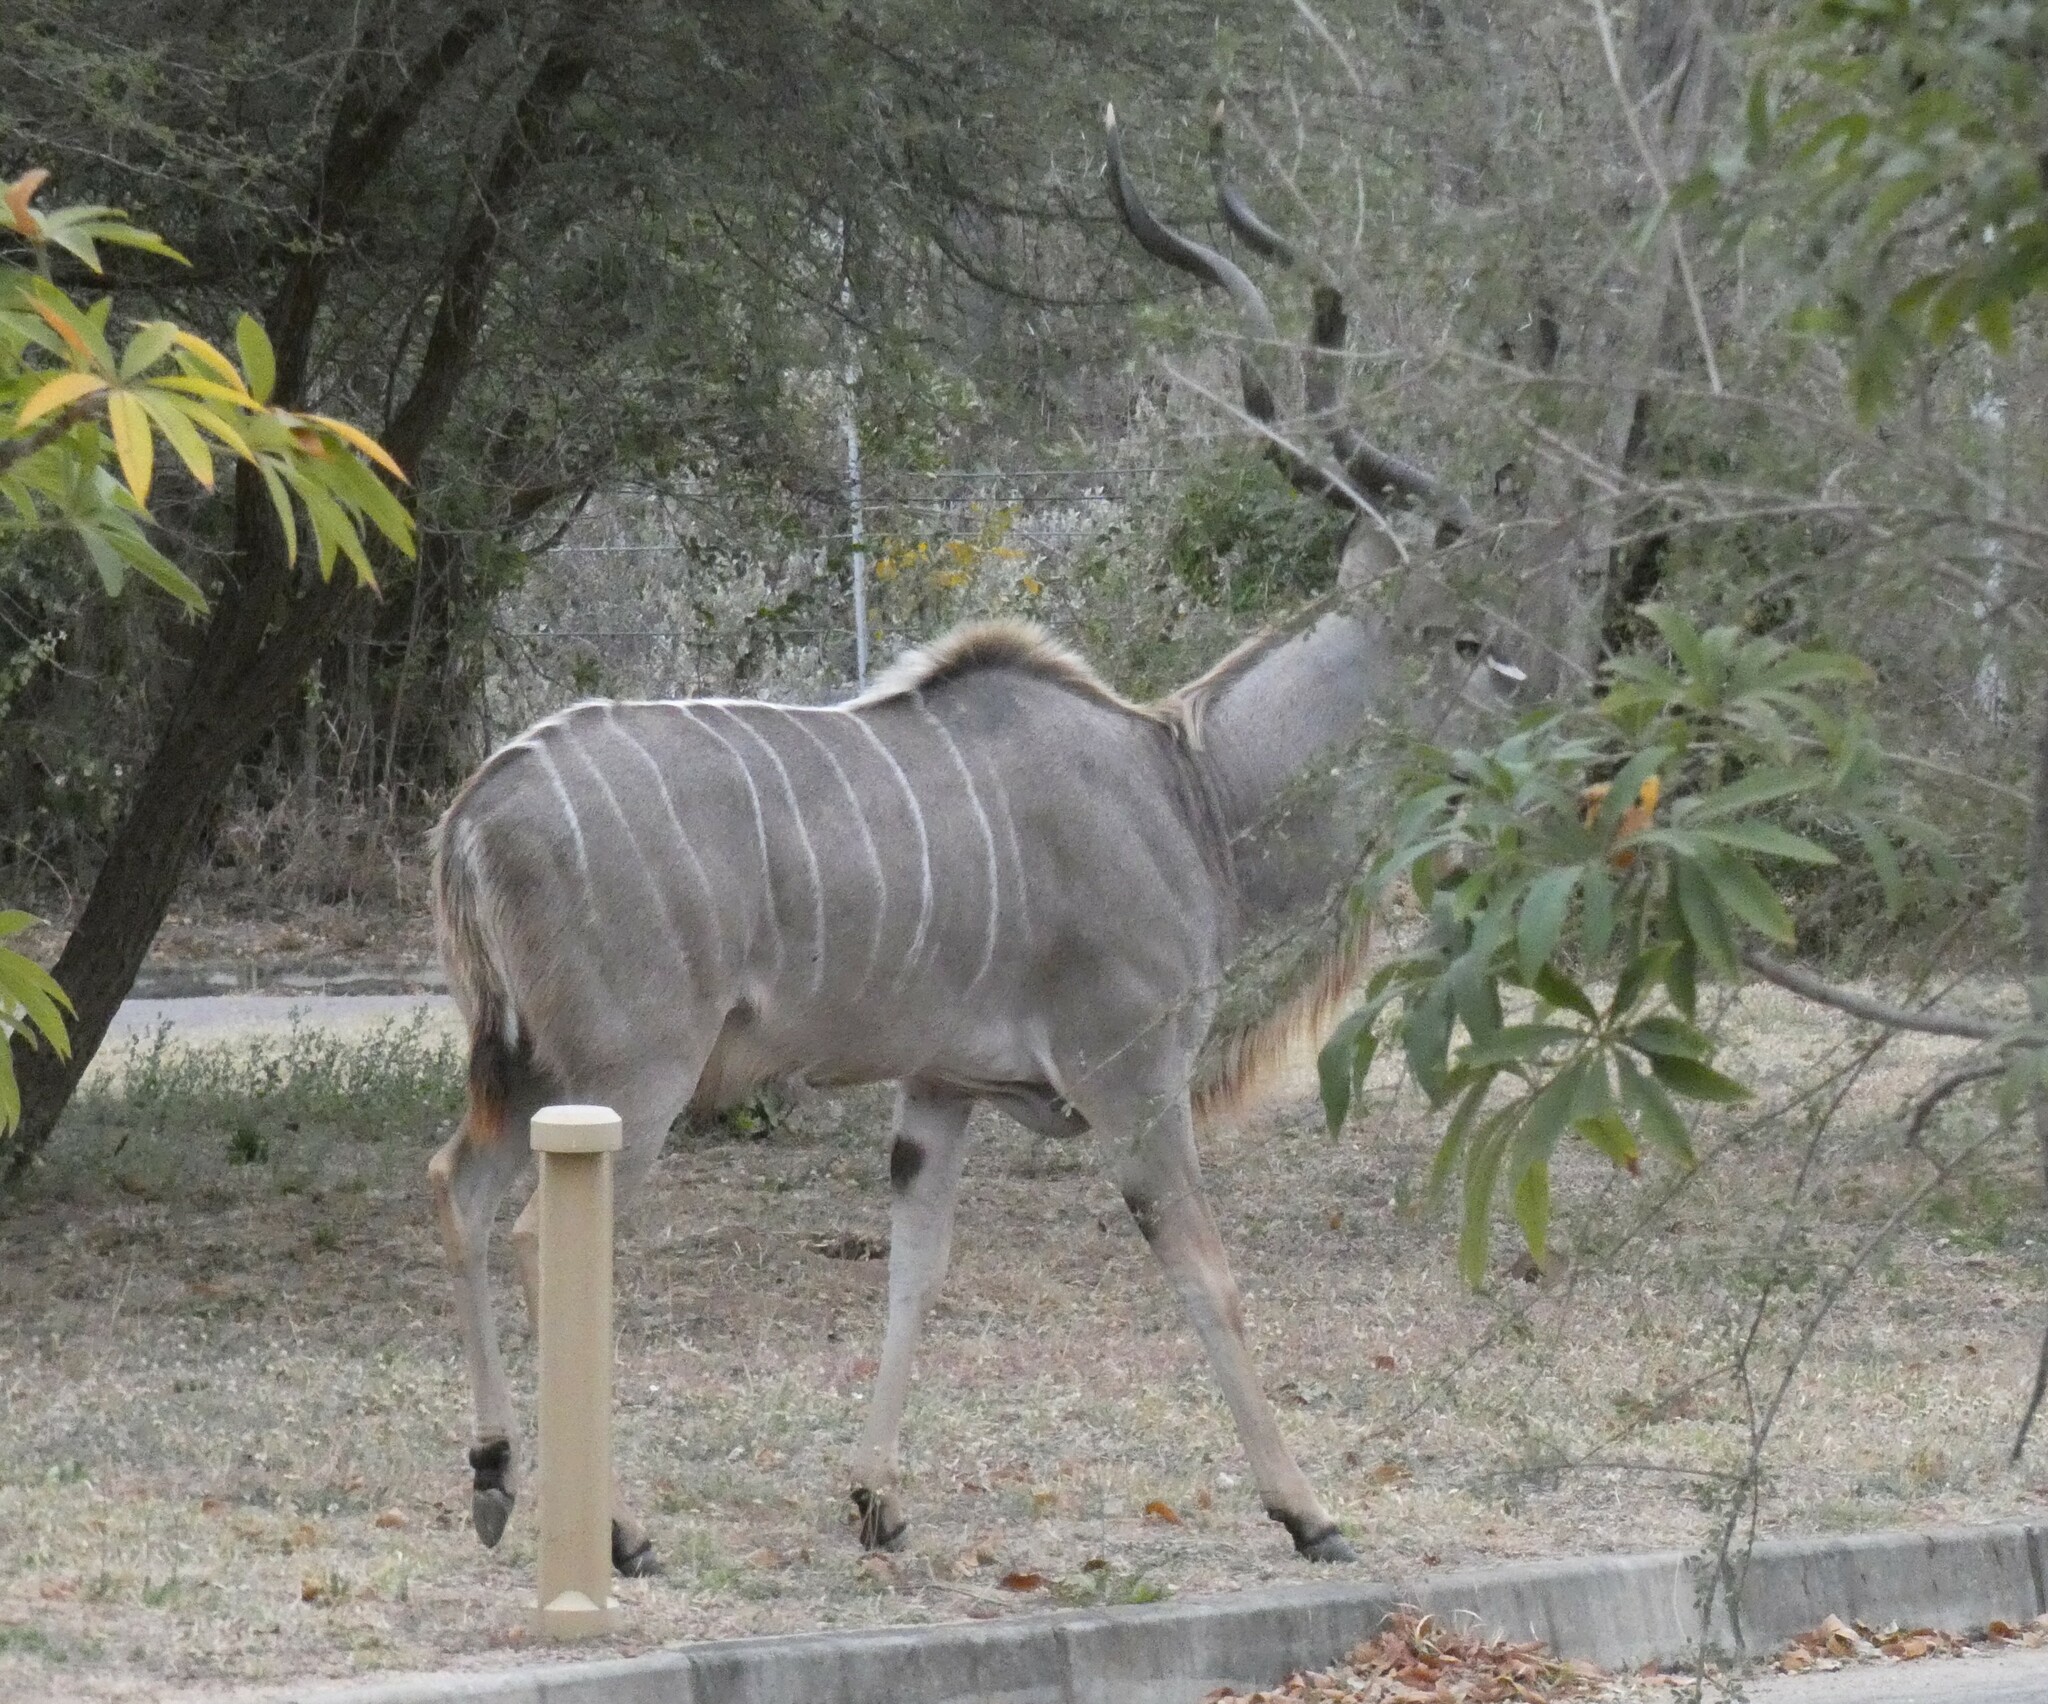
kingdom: Animalia
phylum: Chordata
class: Mammalia
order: Artiodactyla
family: Bovidae
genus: Tragelaphus
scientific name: Tragelaphus strepsiceros
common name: Greater kudu
